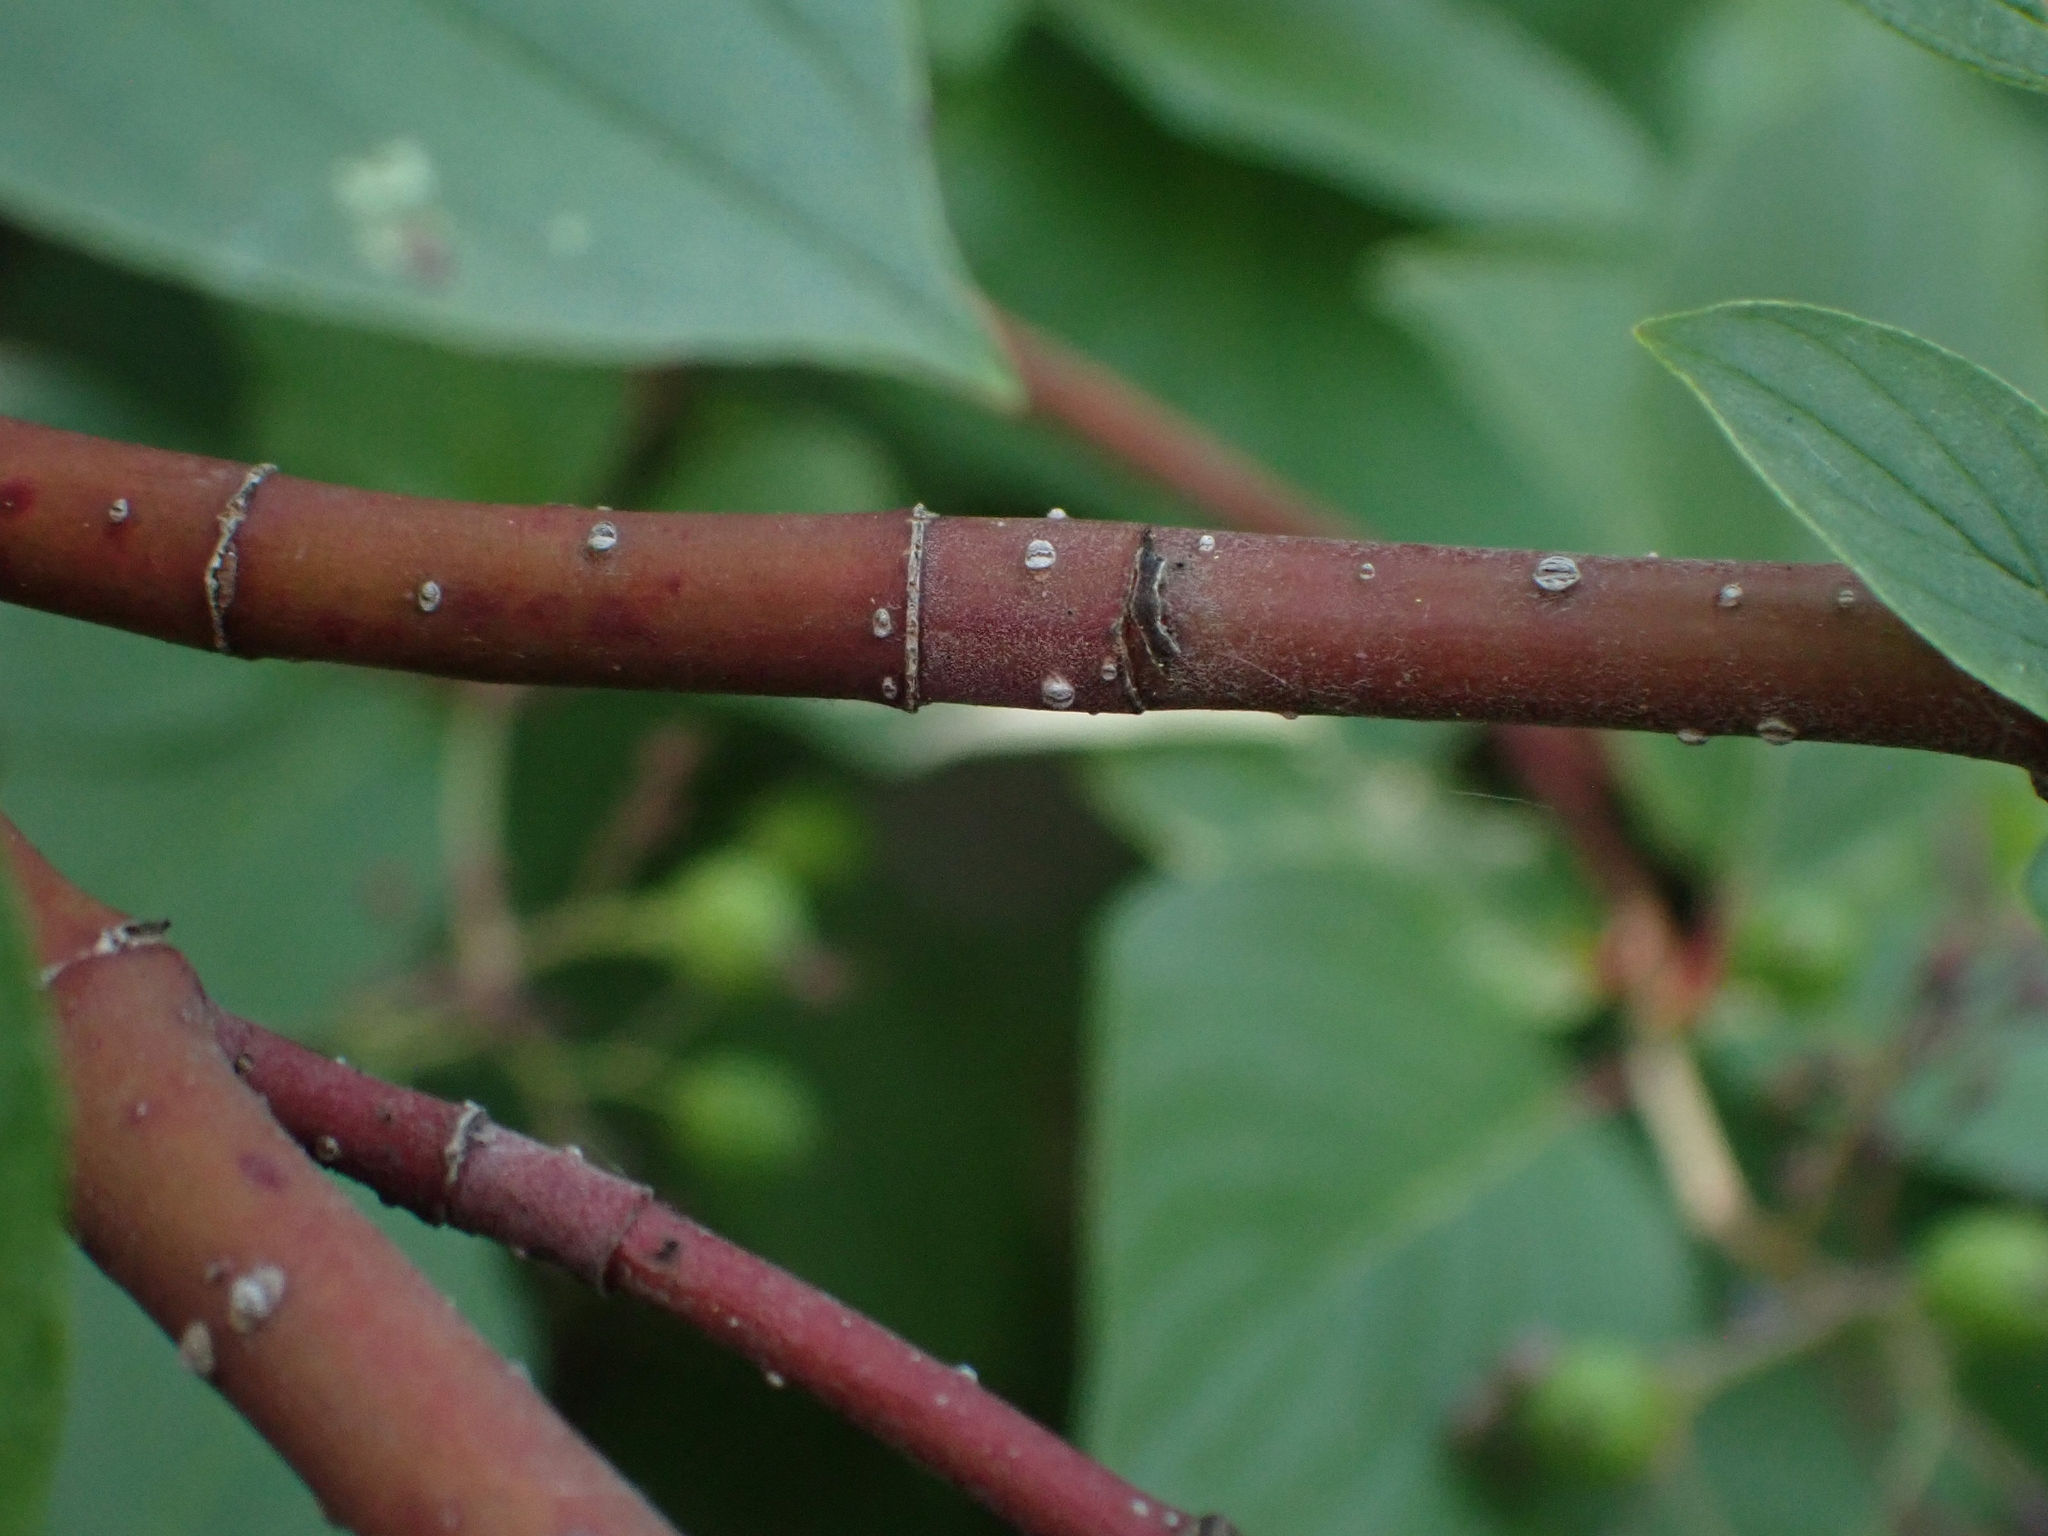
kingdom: Plantae
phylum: Tracheophyta
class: Magnoliopsida
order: Cornales
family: Cornaceae
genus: Cornus
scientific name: Cornus sericea
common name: Red-osier dogwood
